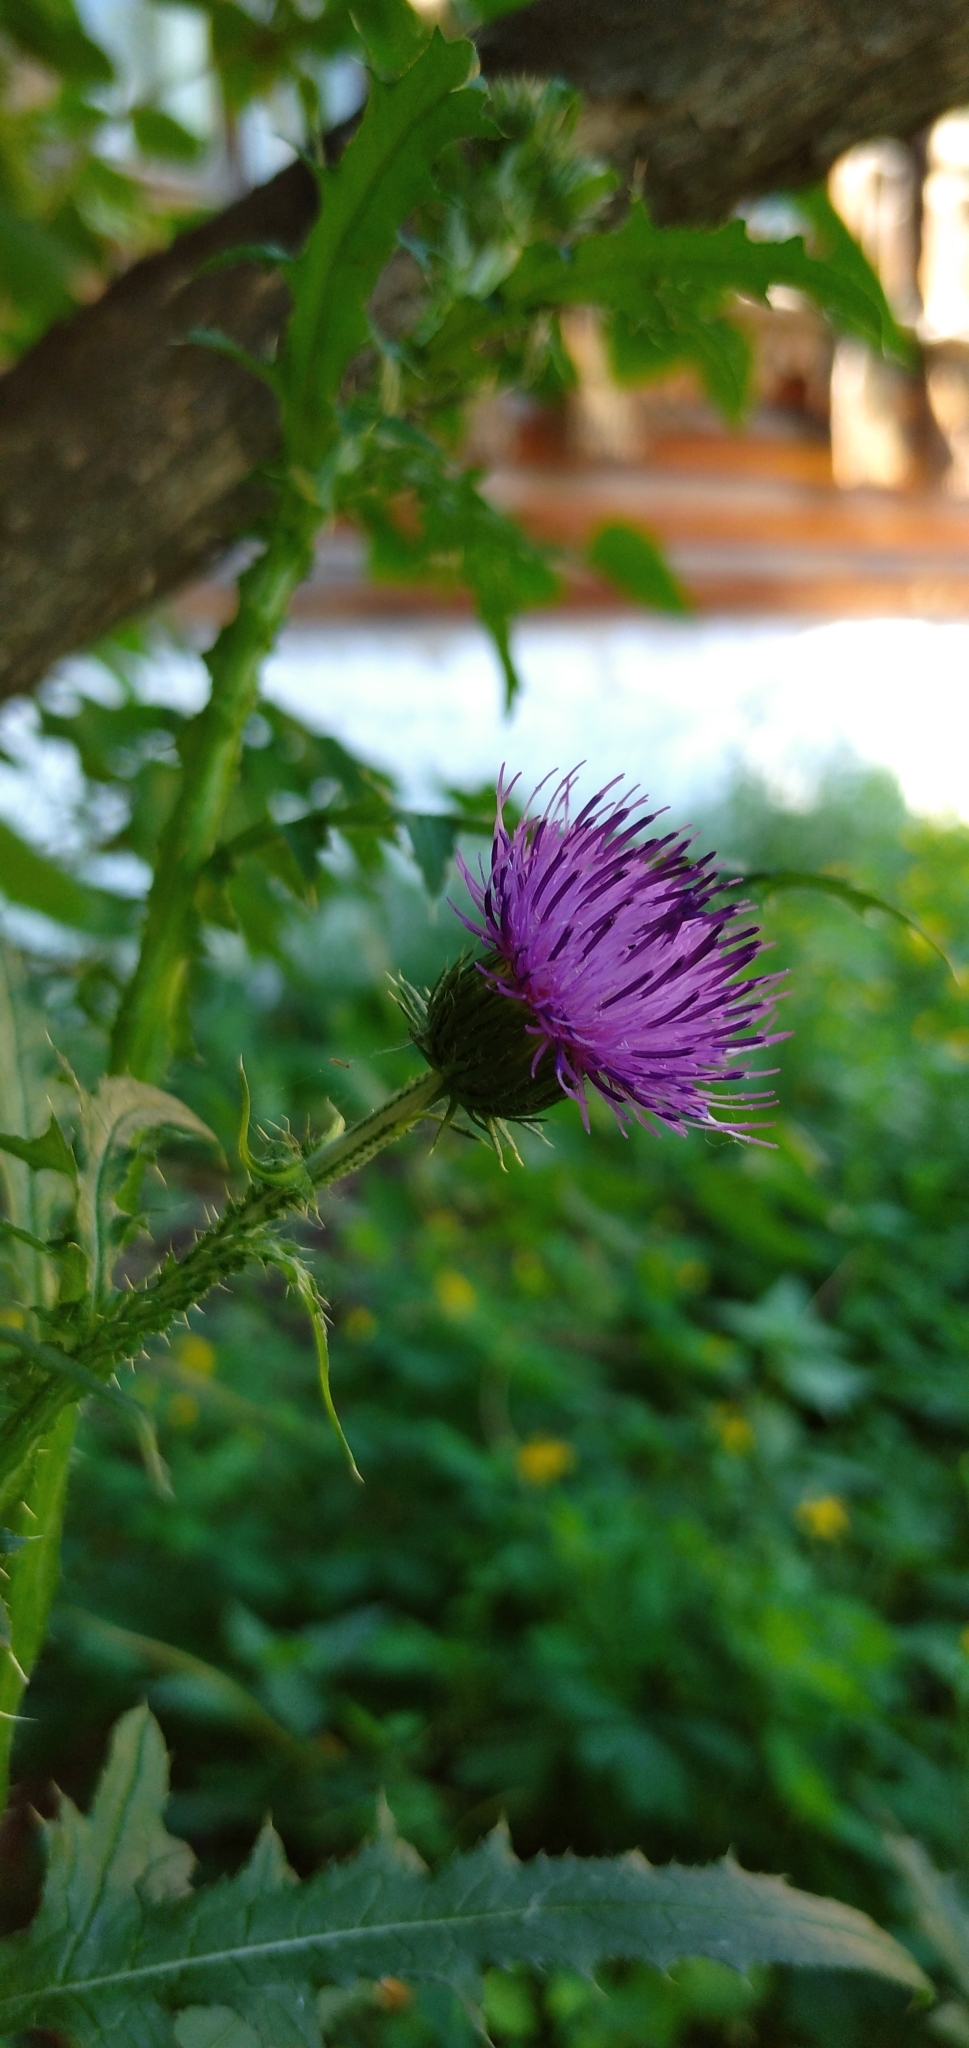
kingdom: Plantae
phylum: Tracheophyta
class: Magnoliopsida
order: Asterales
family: Asteraceae
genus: Carduus
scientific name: Carduus crispus
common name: Welted thistle
